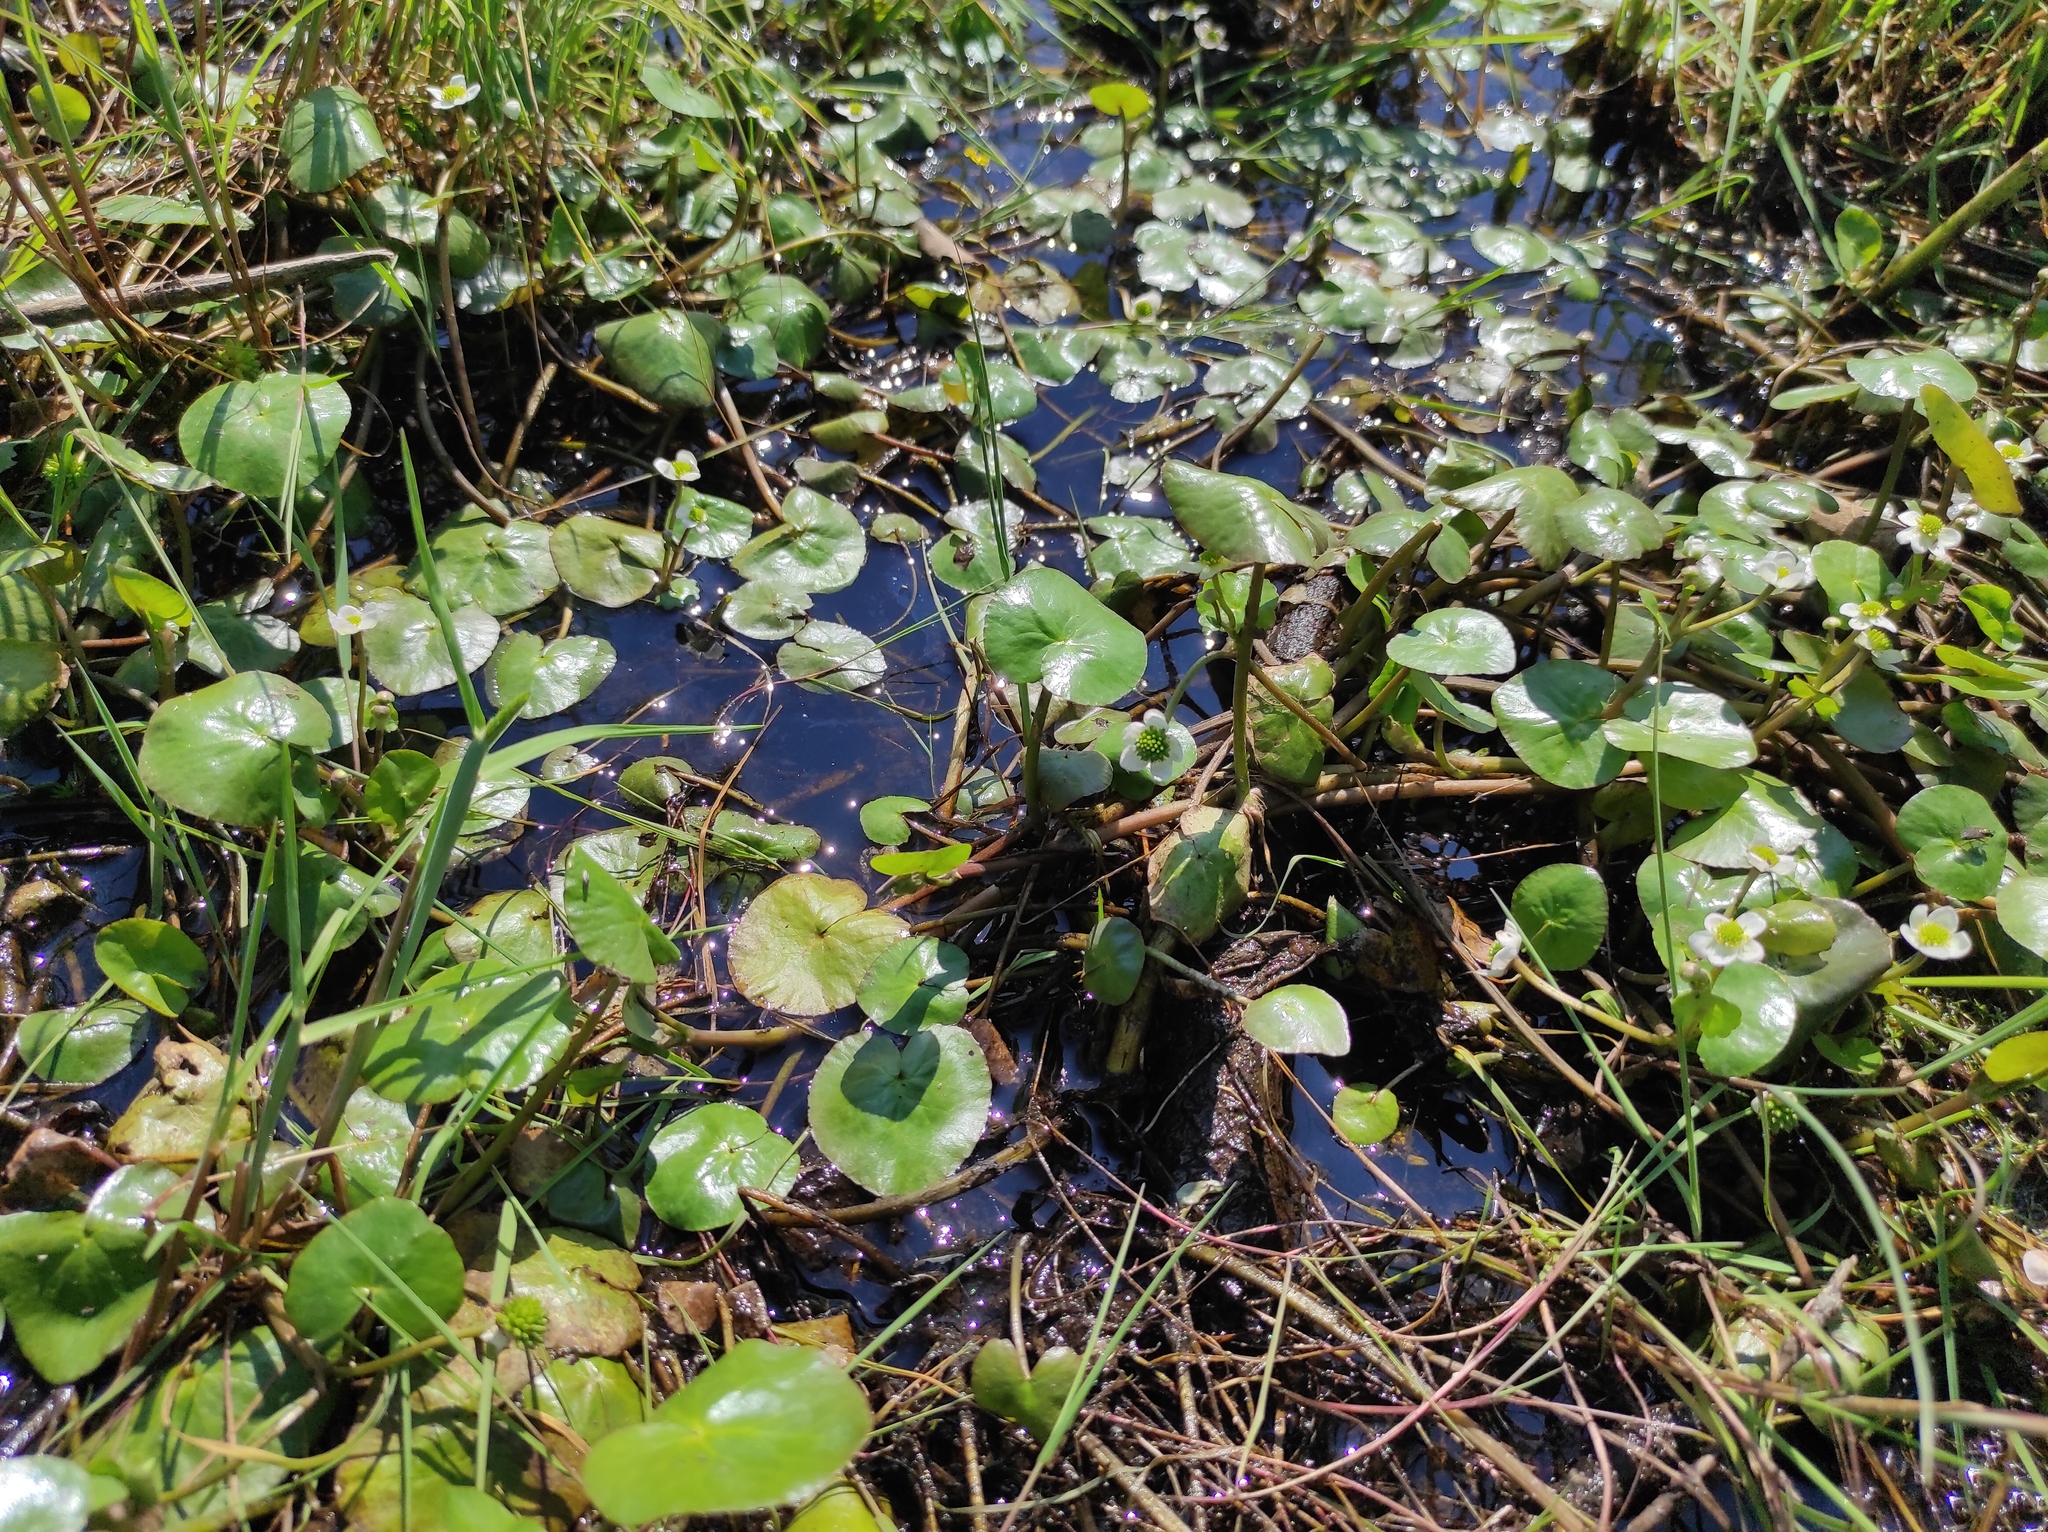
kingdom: Plantae
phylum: Tracheophyta
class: Magnoliopsida
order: Ranunculales
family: Ranunculaceae
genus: Caltha
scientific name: Caltha natans
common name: Floating marsh marigold
